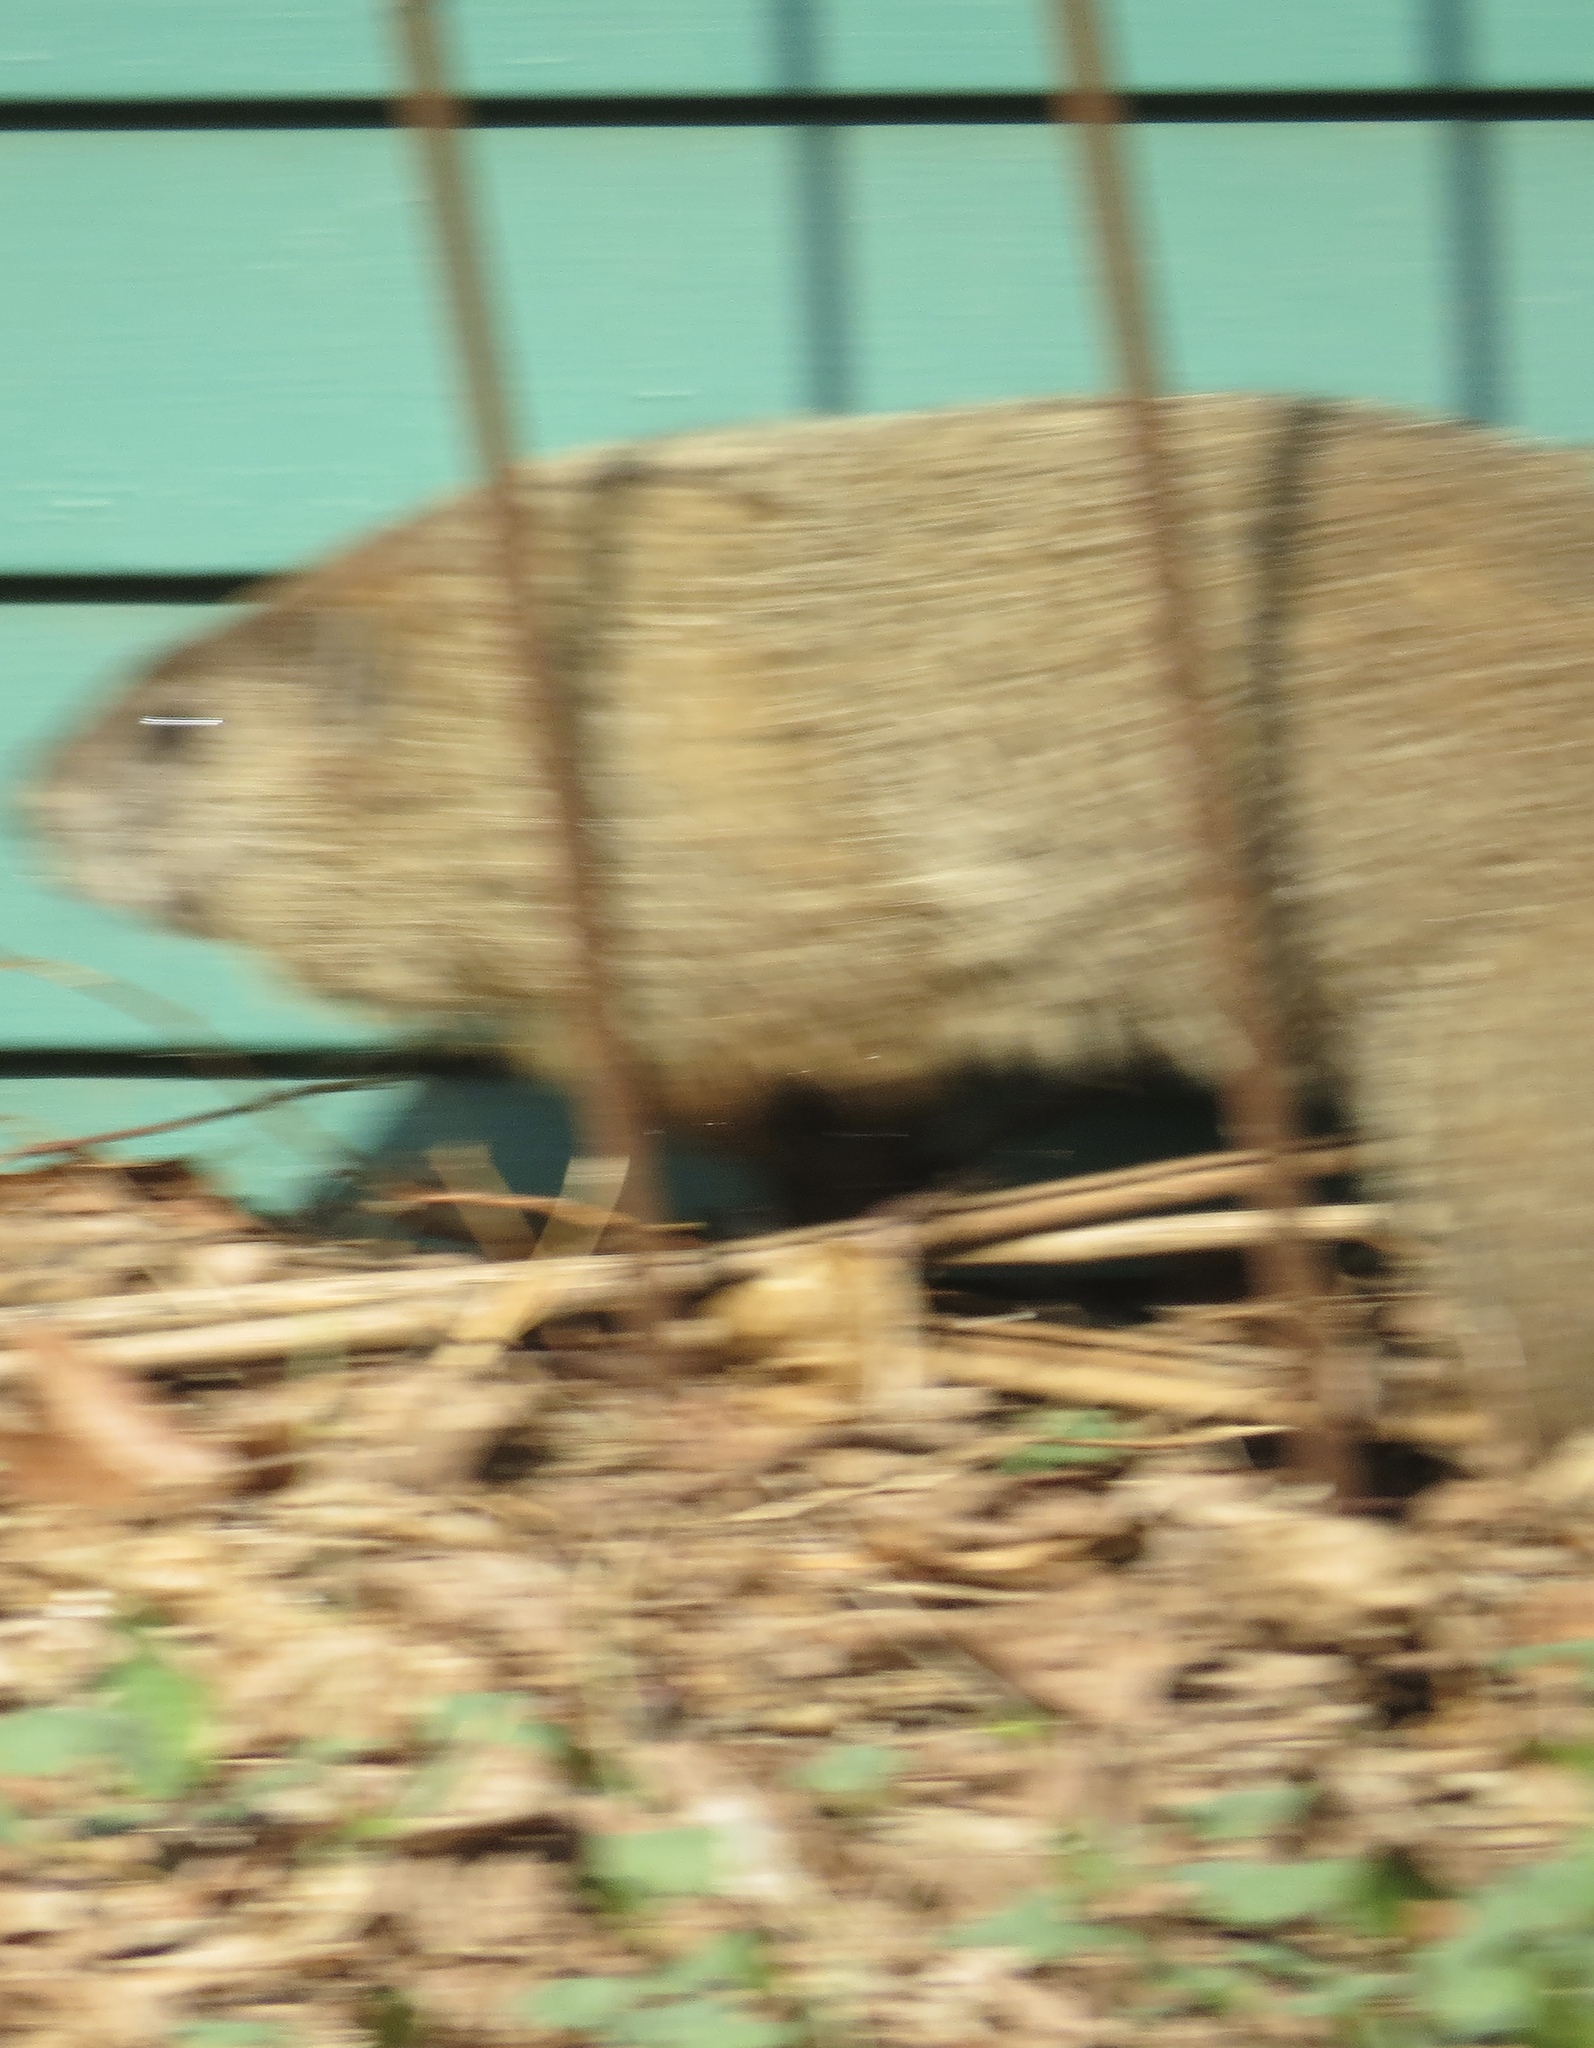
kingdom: Animalia
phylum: Chordata
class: Mammalia
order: Rodentia
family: Sciuridae
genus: Marmota
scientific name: Marmota monax
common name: Groundhog
